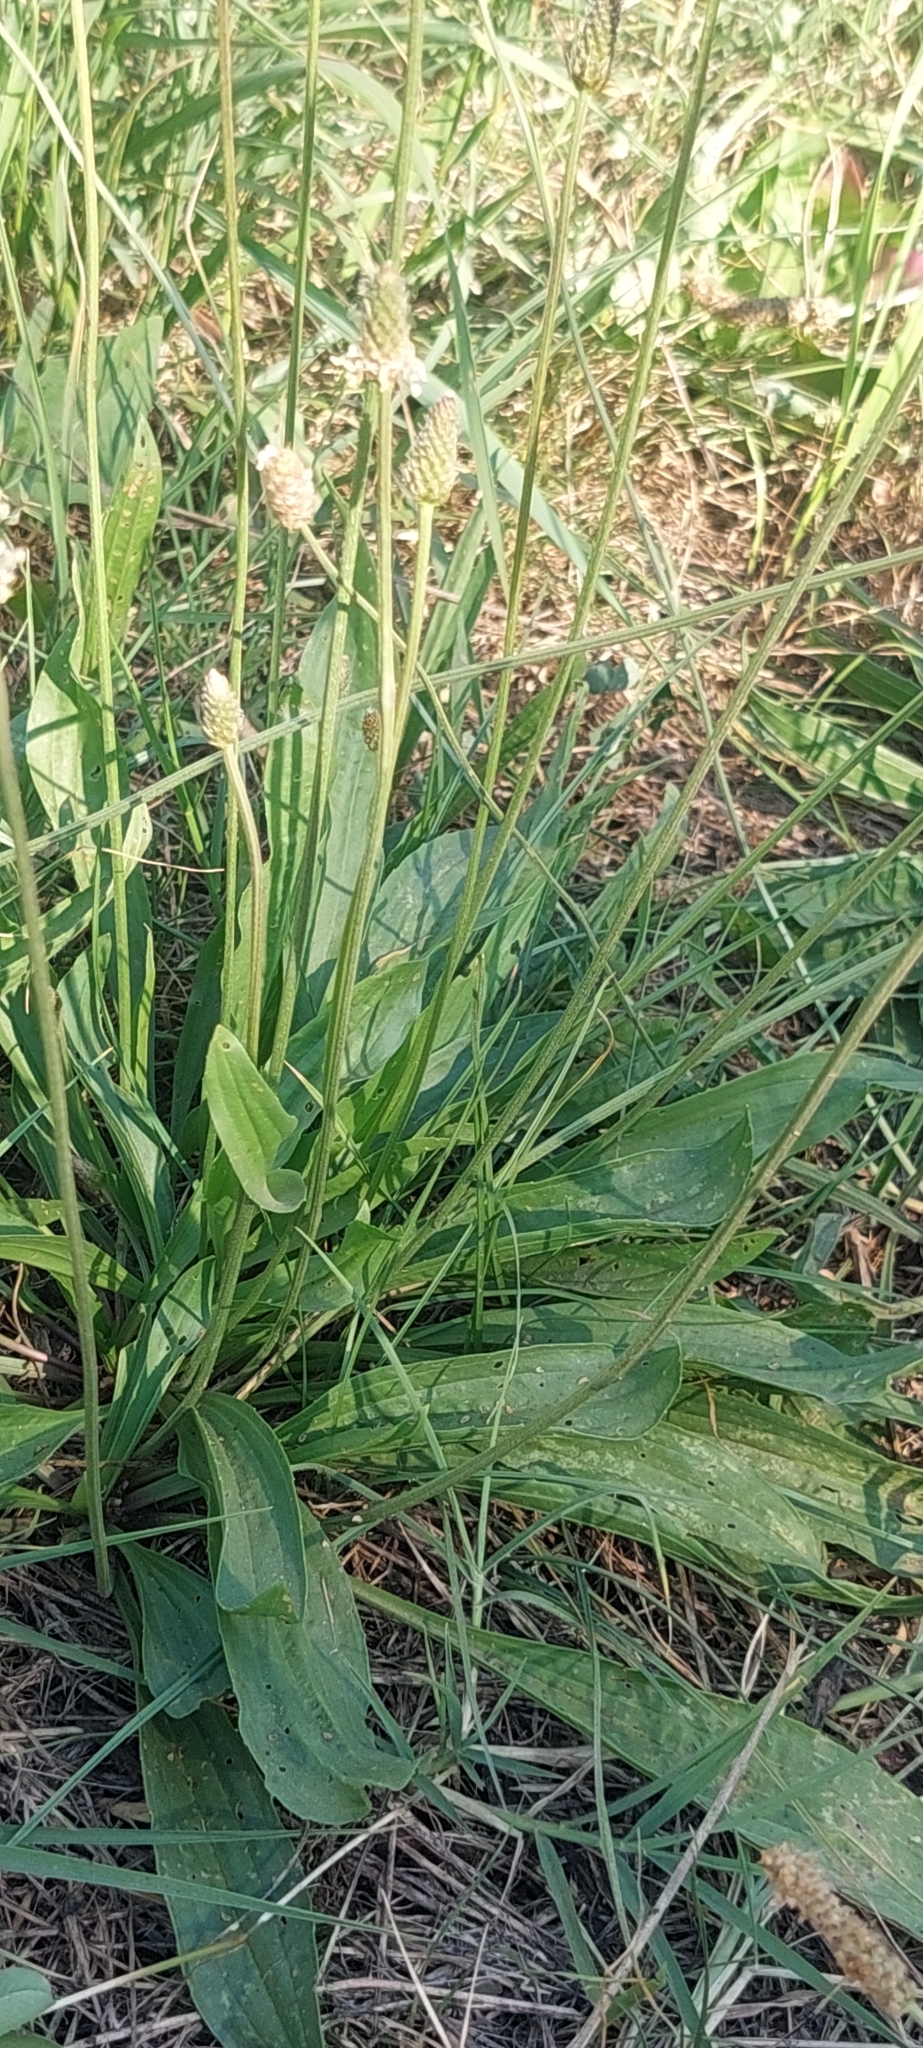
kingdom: Plantae
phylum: Tracheophyta
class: Magnoliopsida
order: Lamiales
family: Plantaginaceae
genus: Plantago
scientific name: Plantago lanceolata
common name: Ribwort plantain
